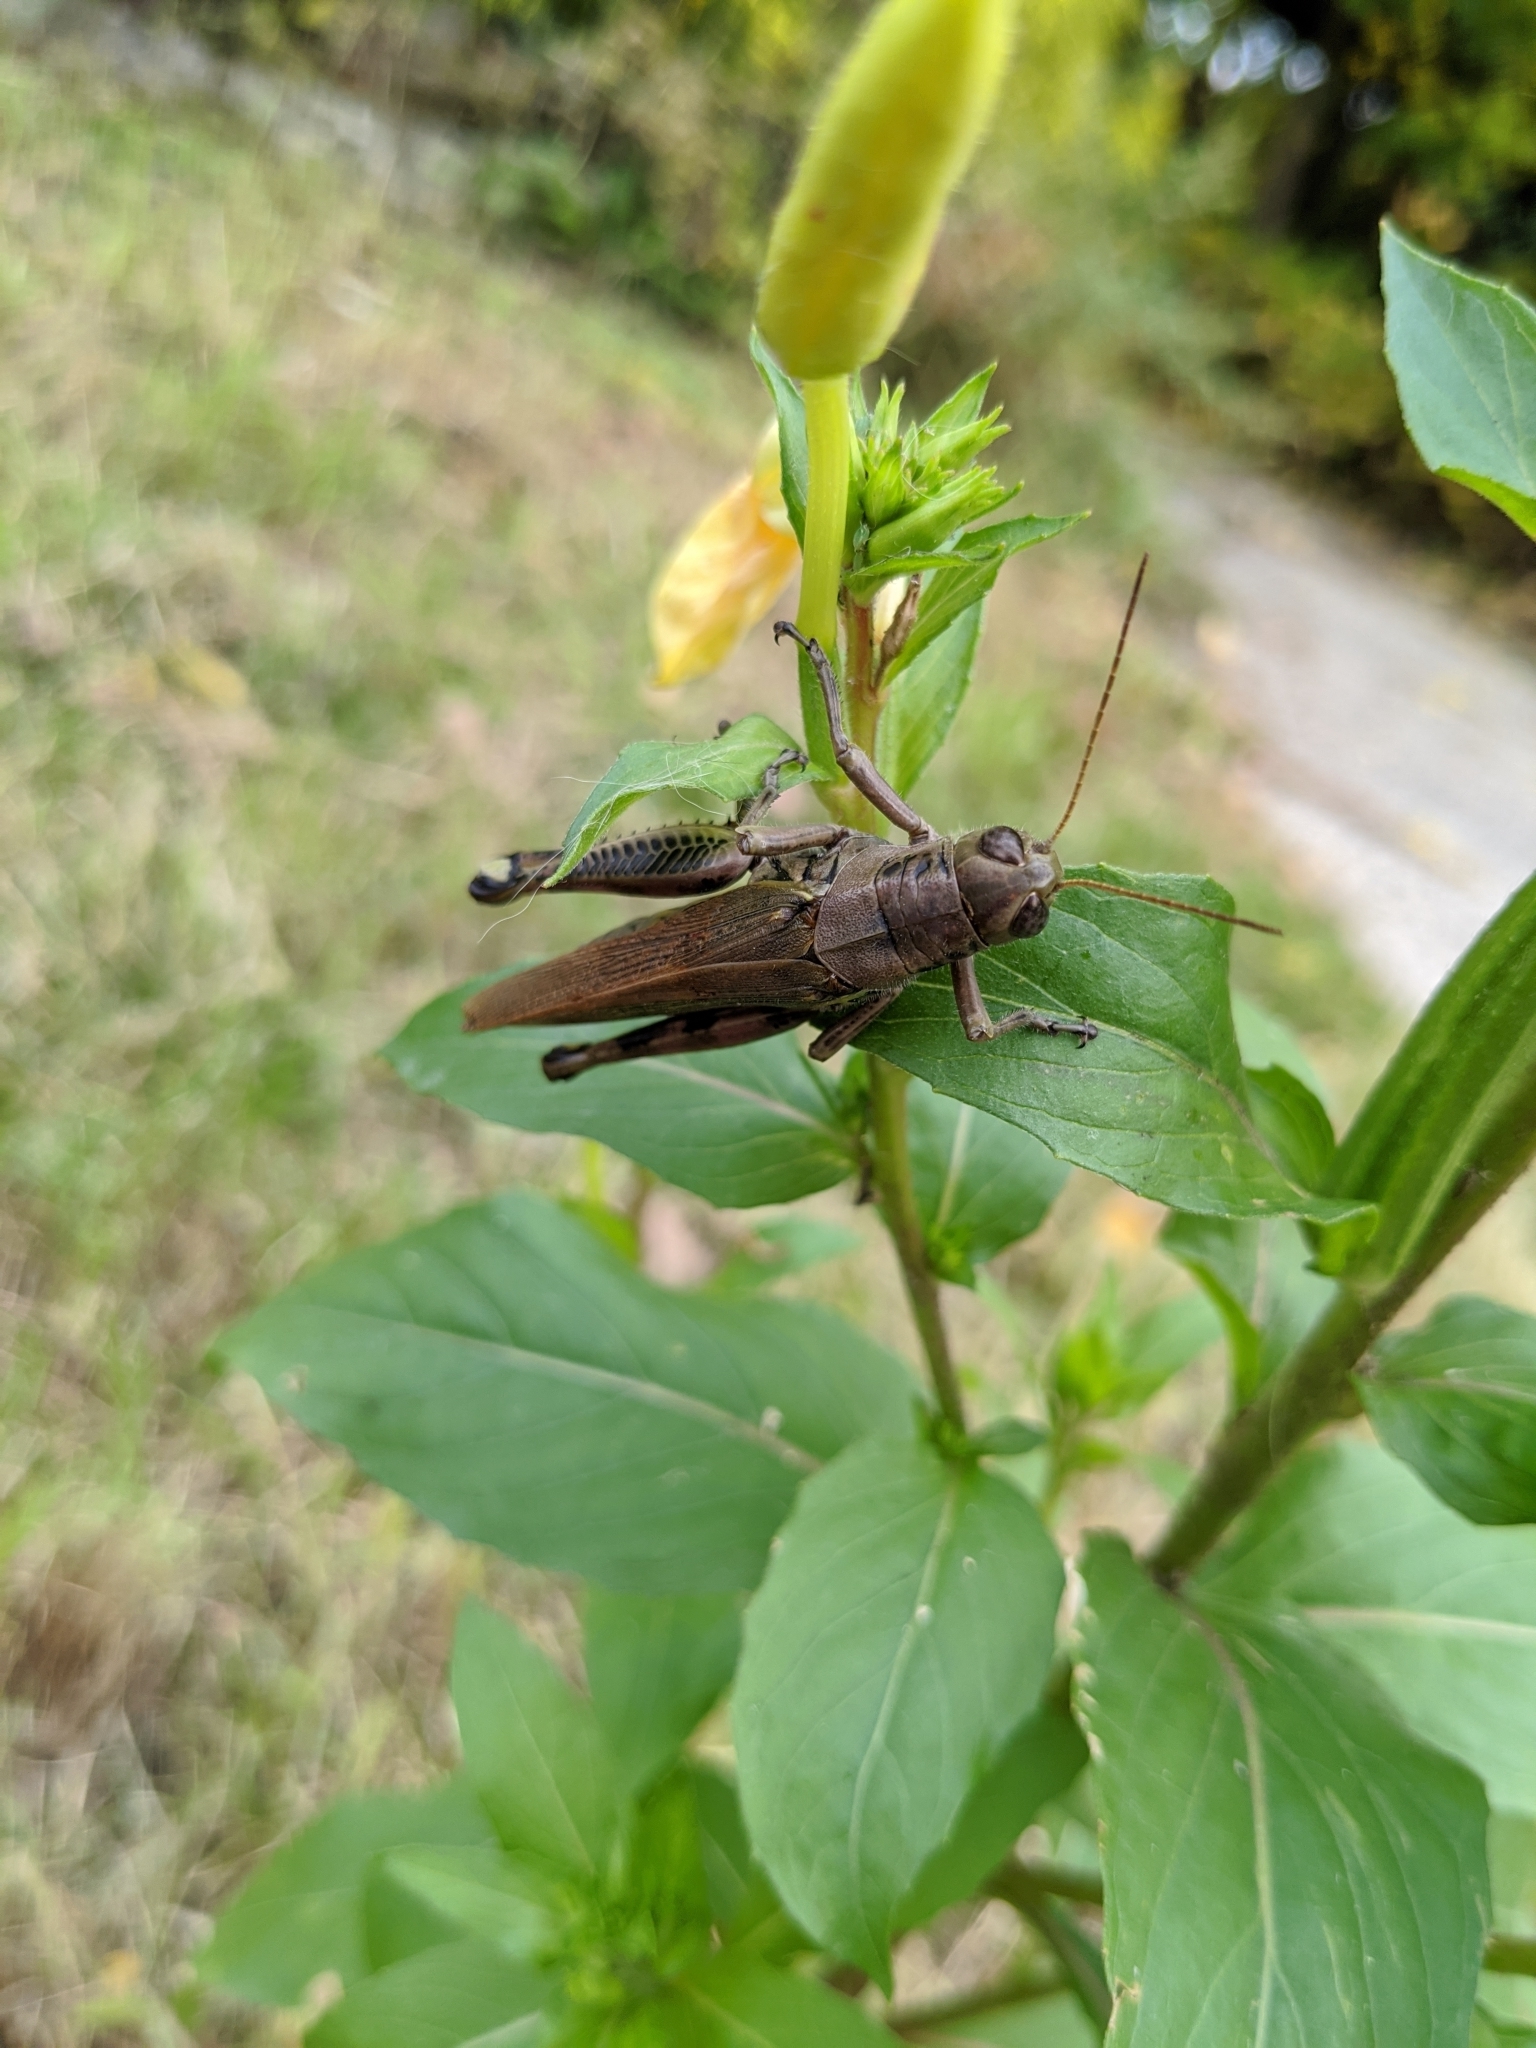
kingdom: Animalia
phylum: Arthropoda
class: Insecta
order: Orthoptera
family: Acrididae
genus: Melanoplus
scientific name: Melanoplus differentialis
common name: Differential grasshopper
